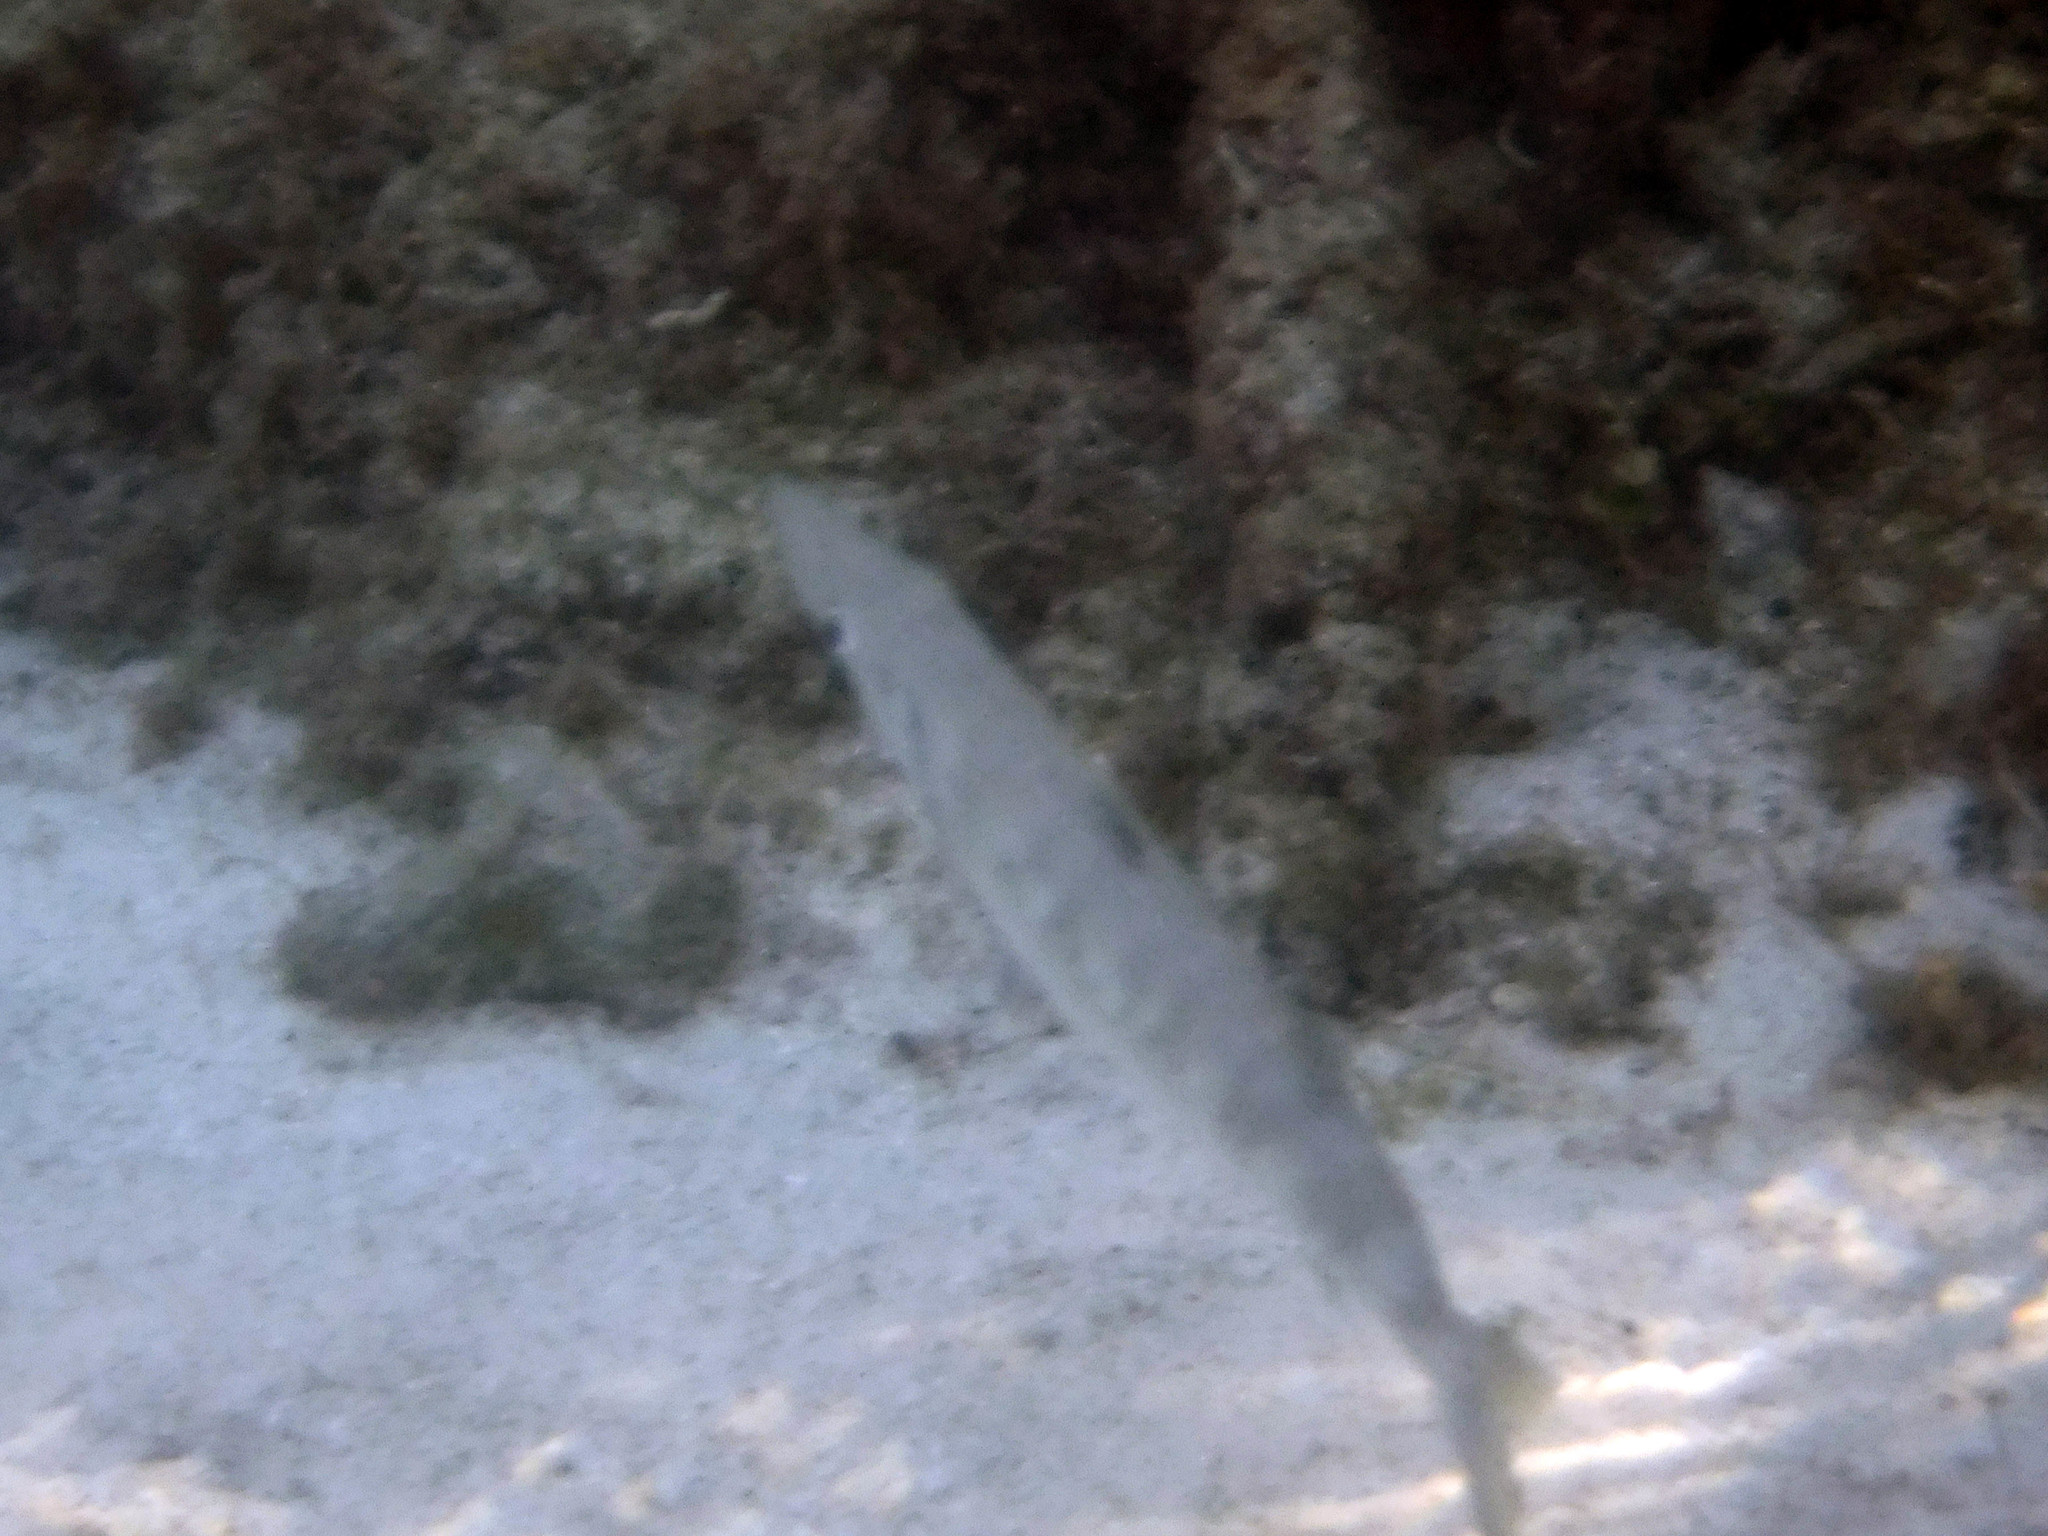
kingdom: Animalia
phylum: Chordata
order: Perciformes
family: Sphyraenidae
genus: Sphyraena
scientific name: Sphyraena barracuda
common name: Great barracuda
